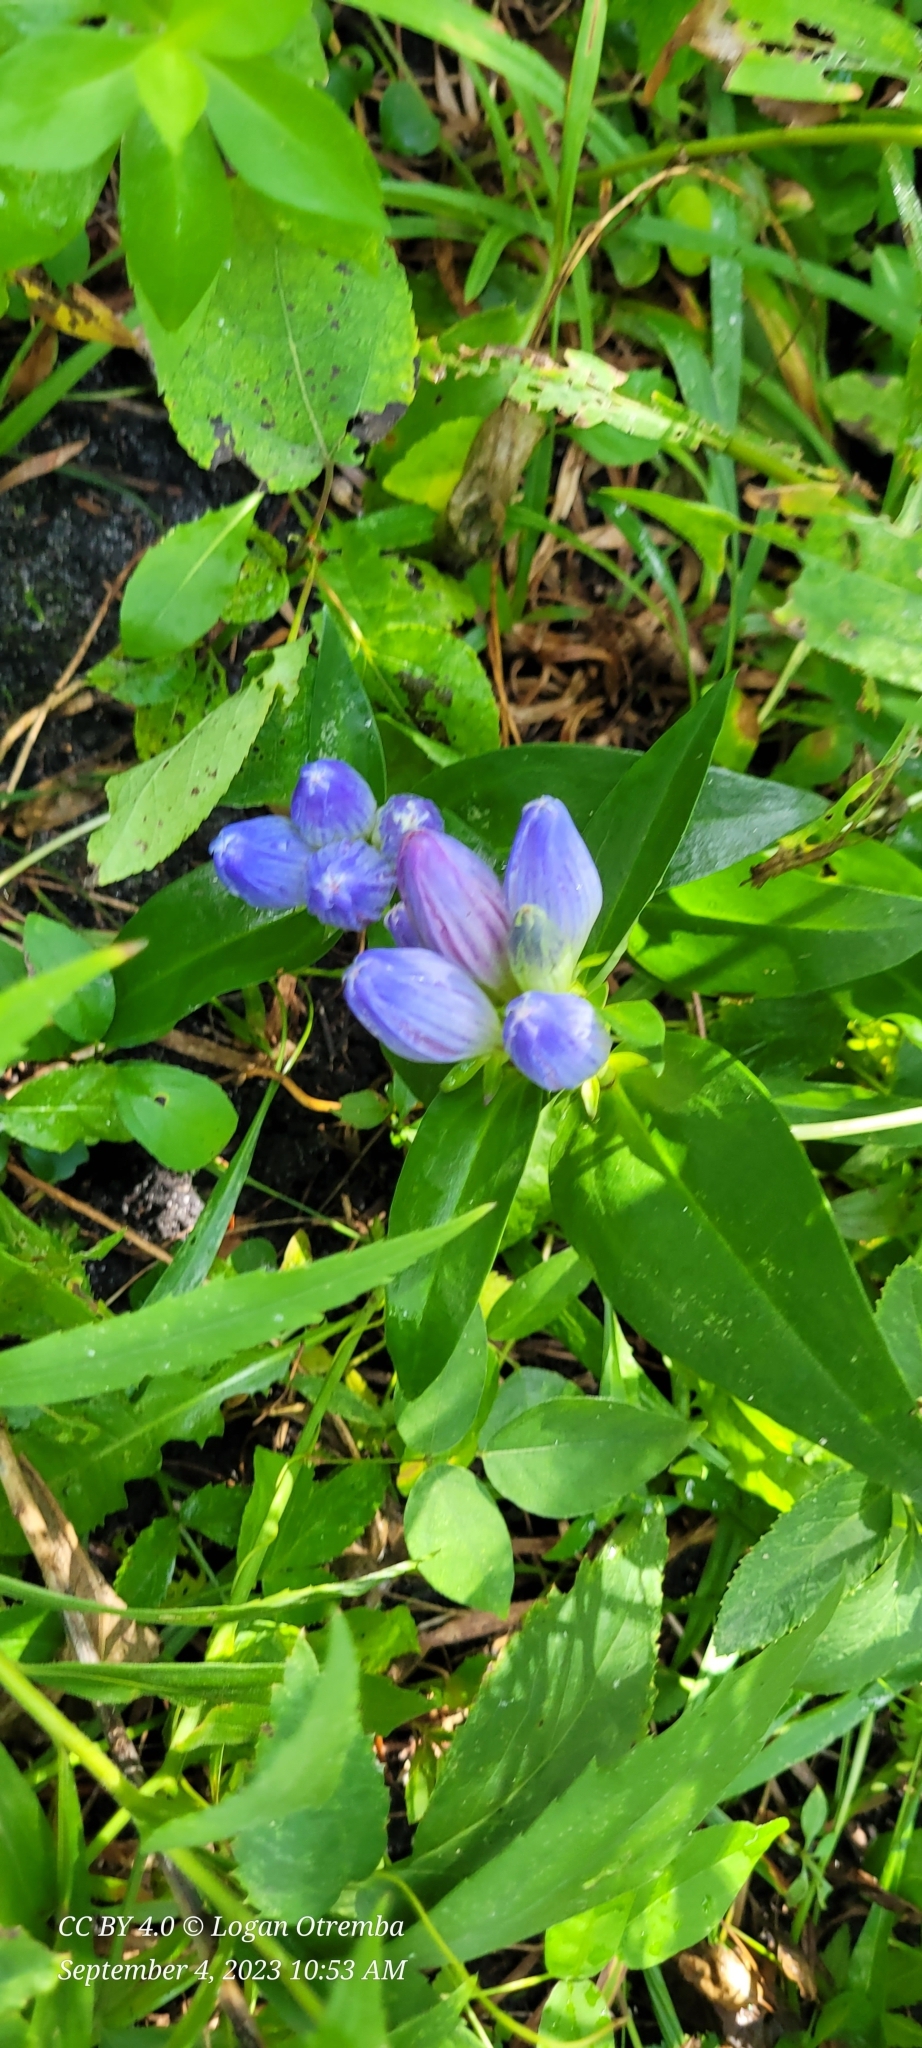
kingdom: Plantae
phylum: Tracheophyta
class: Magnoliopsida
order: Gentianales
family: Gentianaceae
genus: Gentiana
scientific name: Gentiana andrewsii
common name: Bottle gentian
